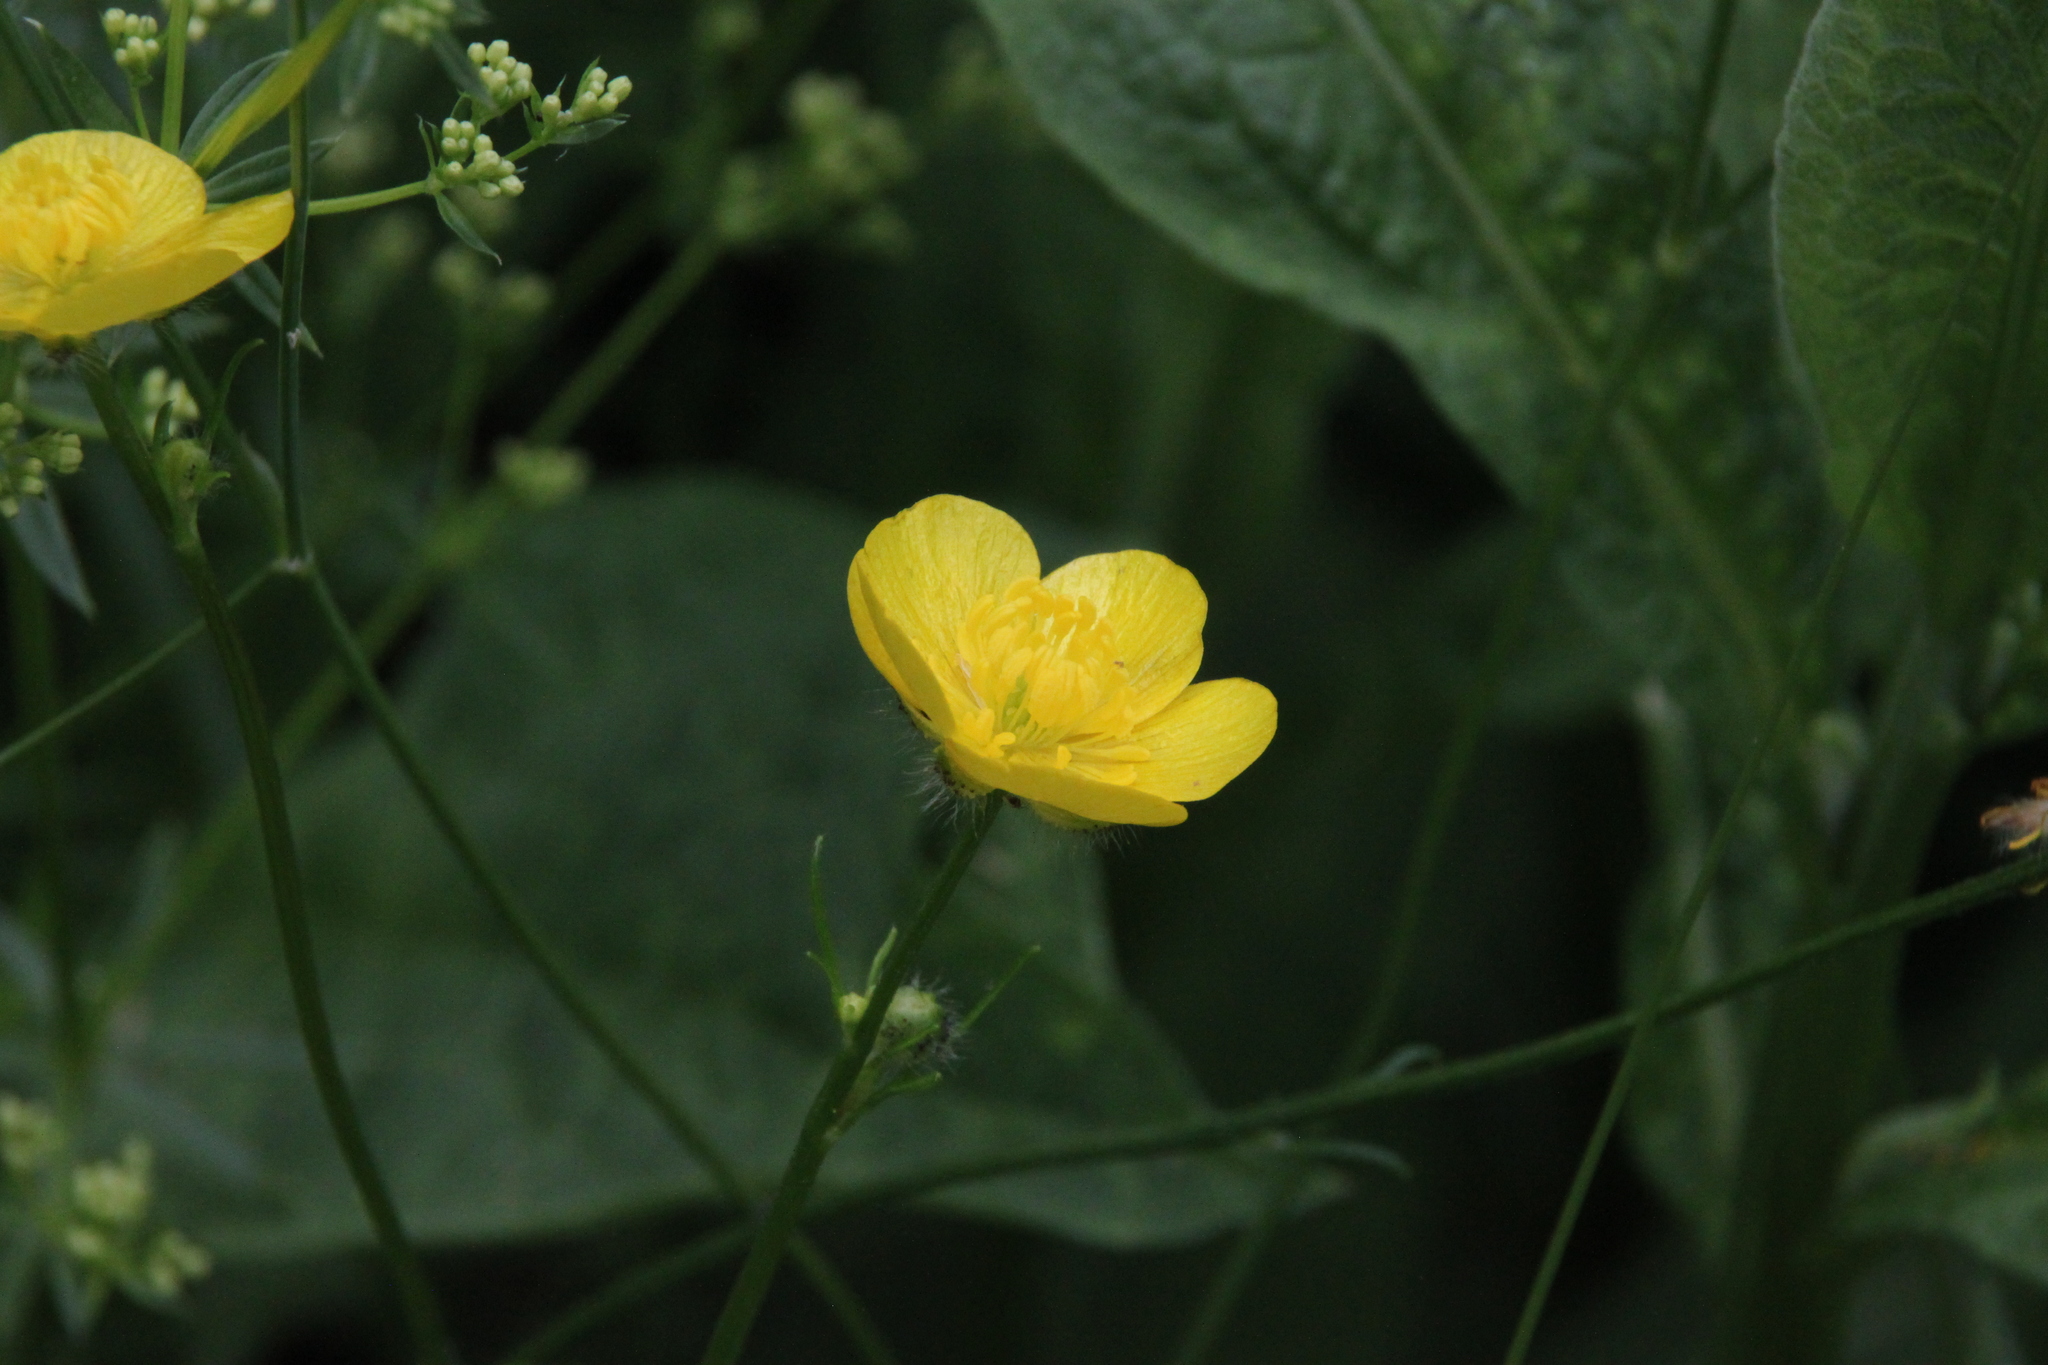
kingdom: Plantae
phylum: Tracheophyta
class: Magnoliopsida
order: Ranunculales
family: Ranunculaceae
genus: Ranunculus
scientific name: Ranunculus polyanthemos
